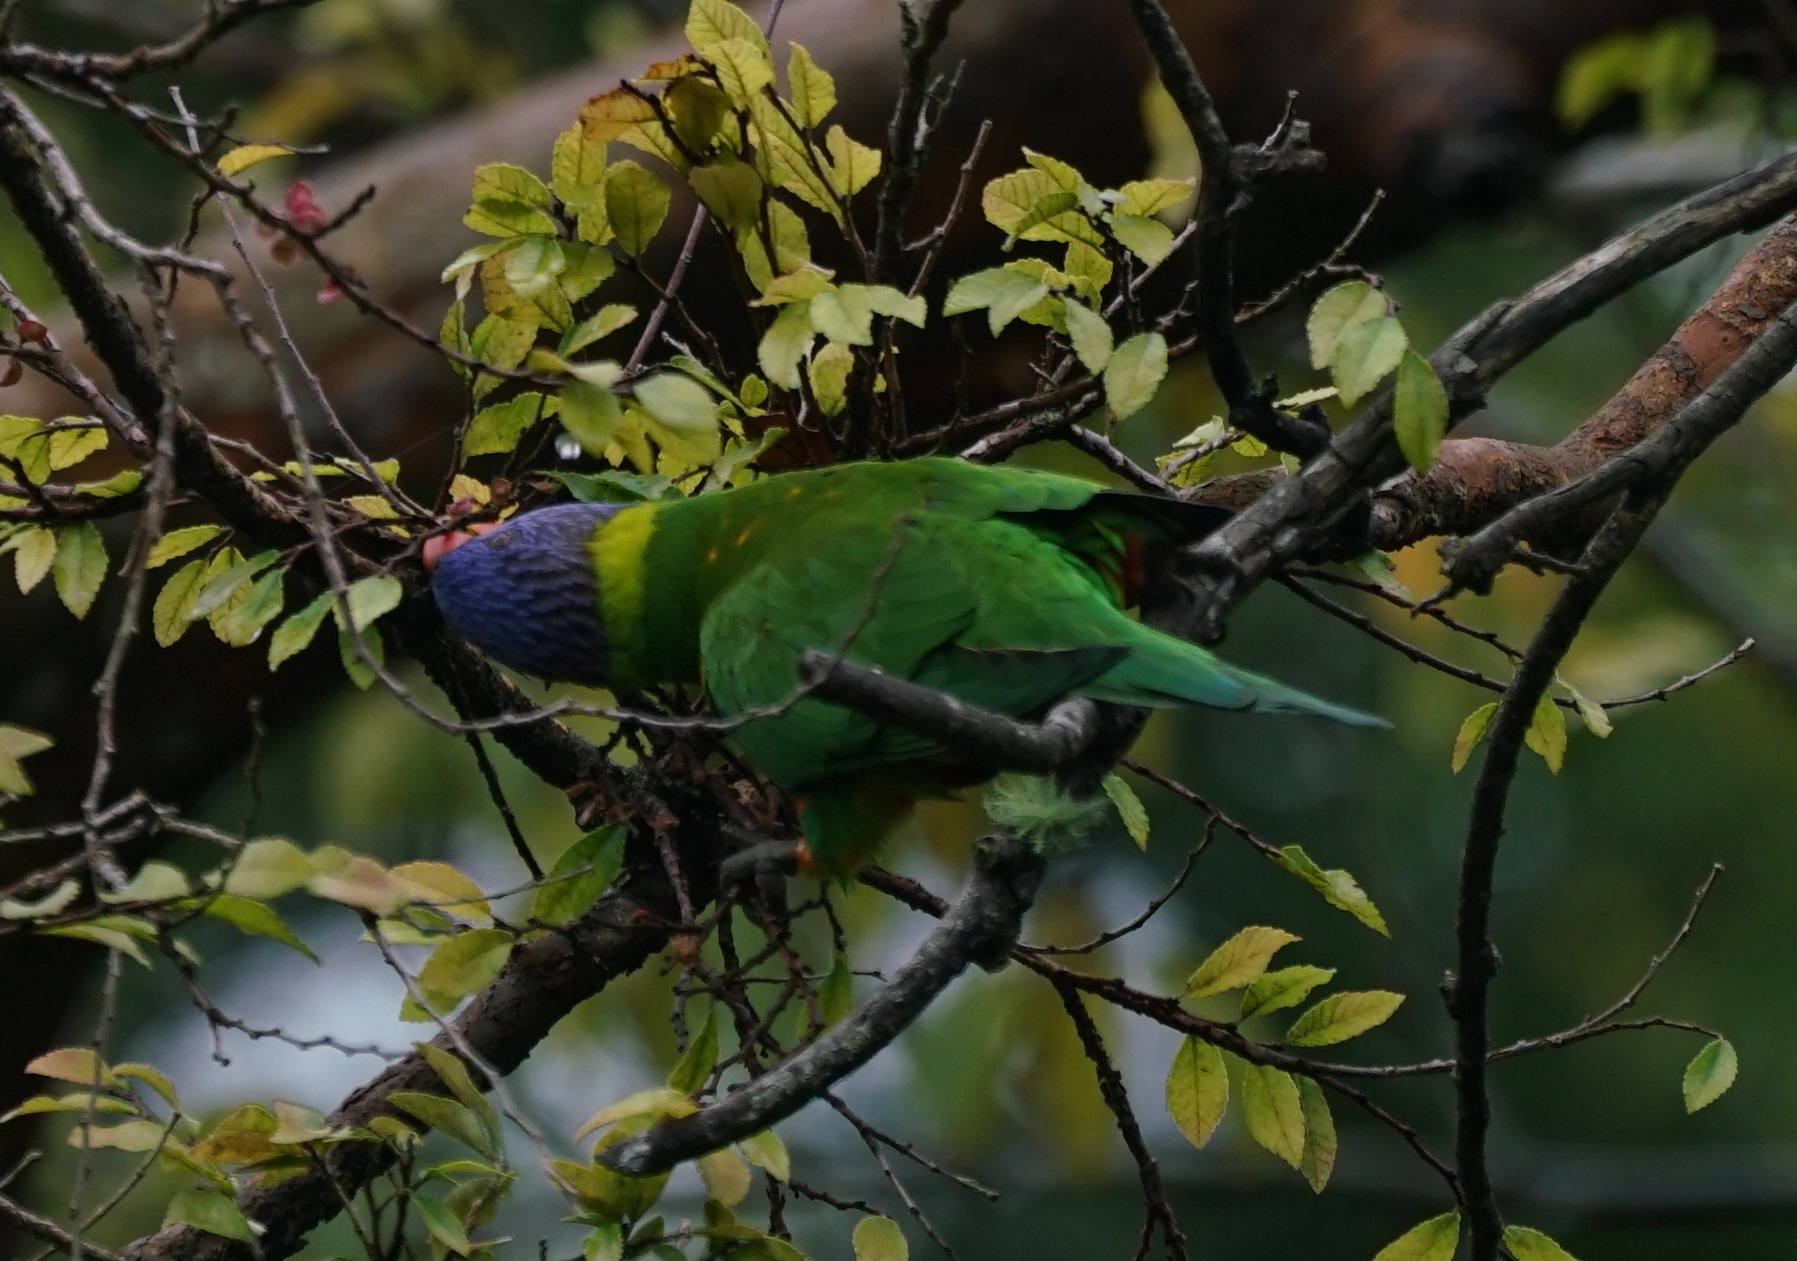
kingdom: Animalia
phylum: Chordata
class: Aves
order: Psittaciformes
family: Psittacidae
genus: Trichoglossus
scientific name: Trichoglossus haematodus
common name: Coconut lorikeet
